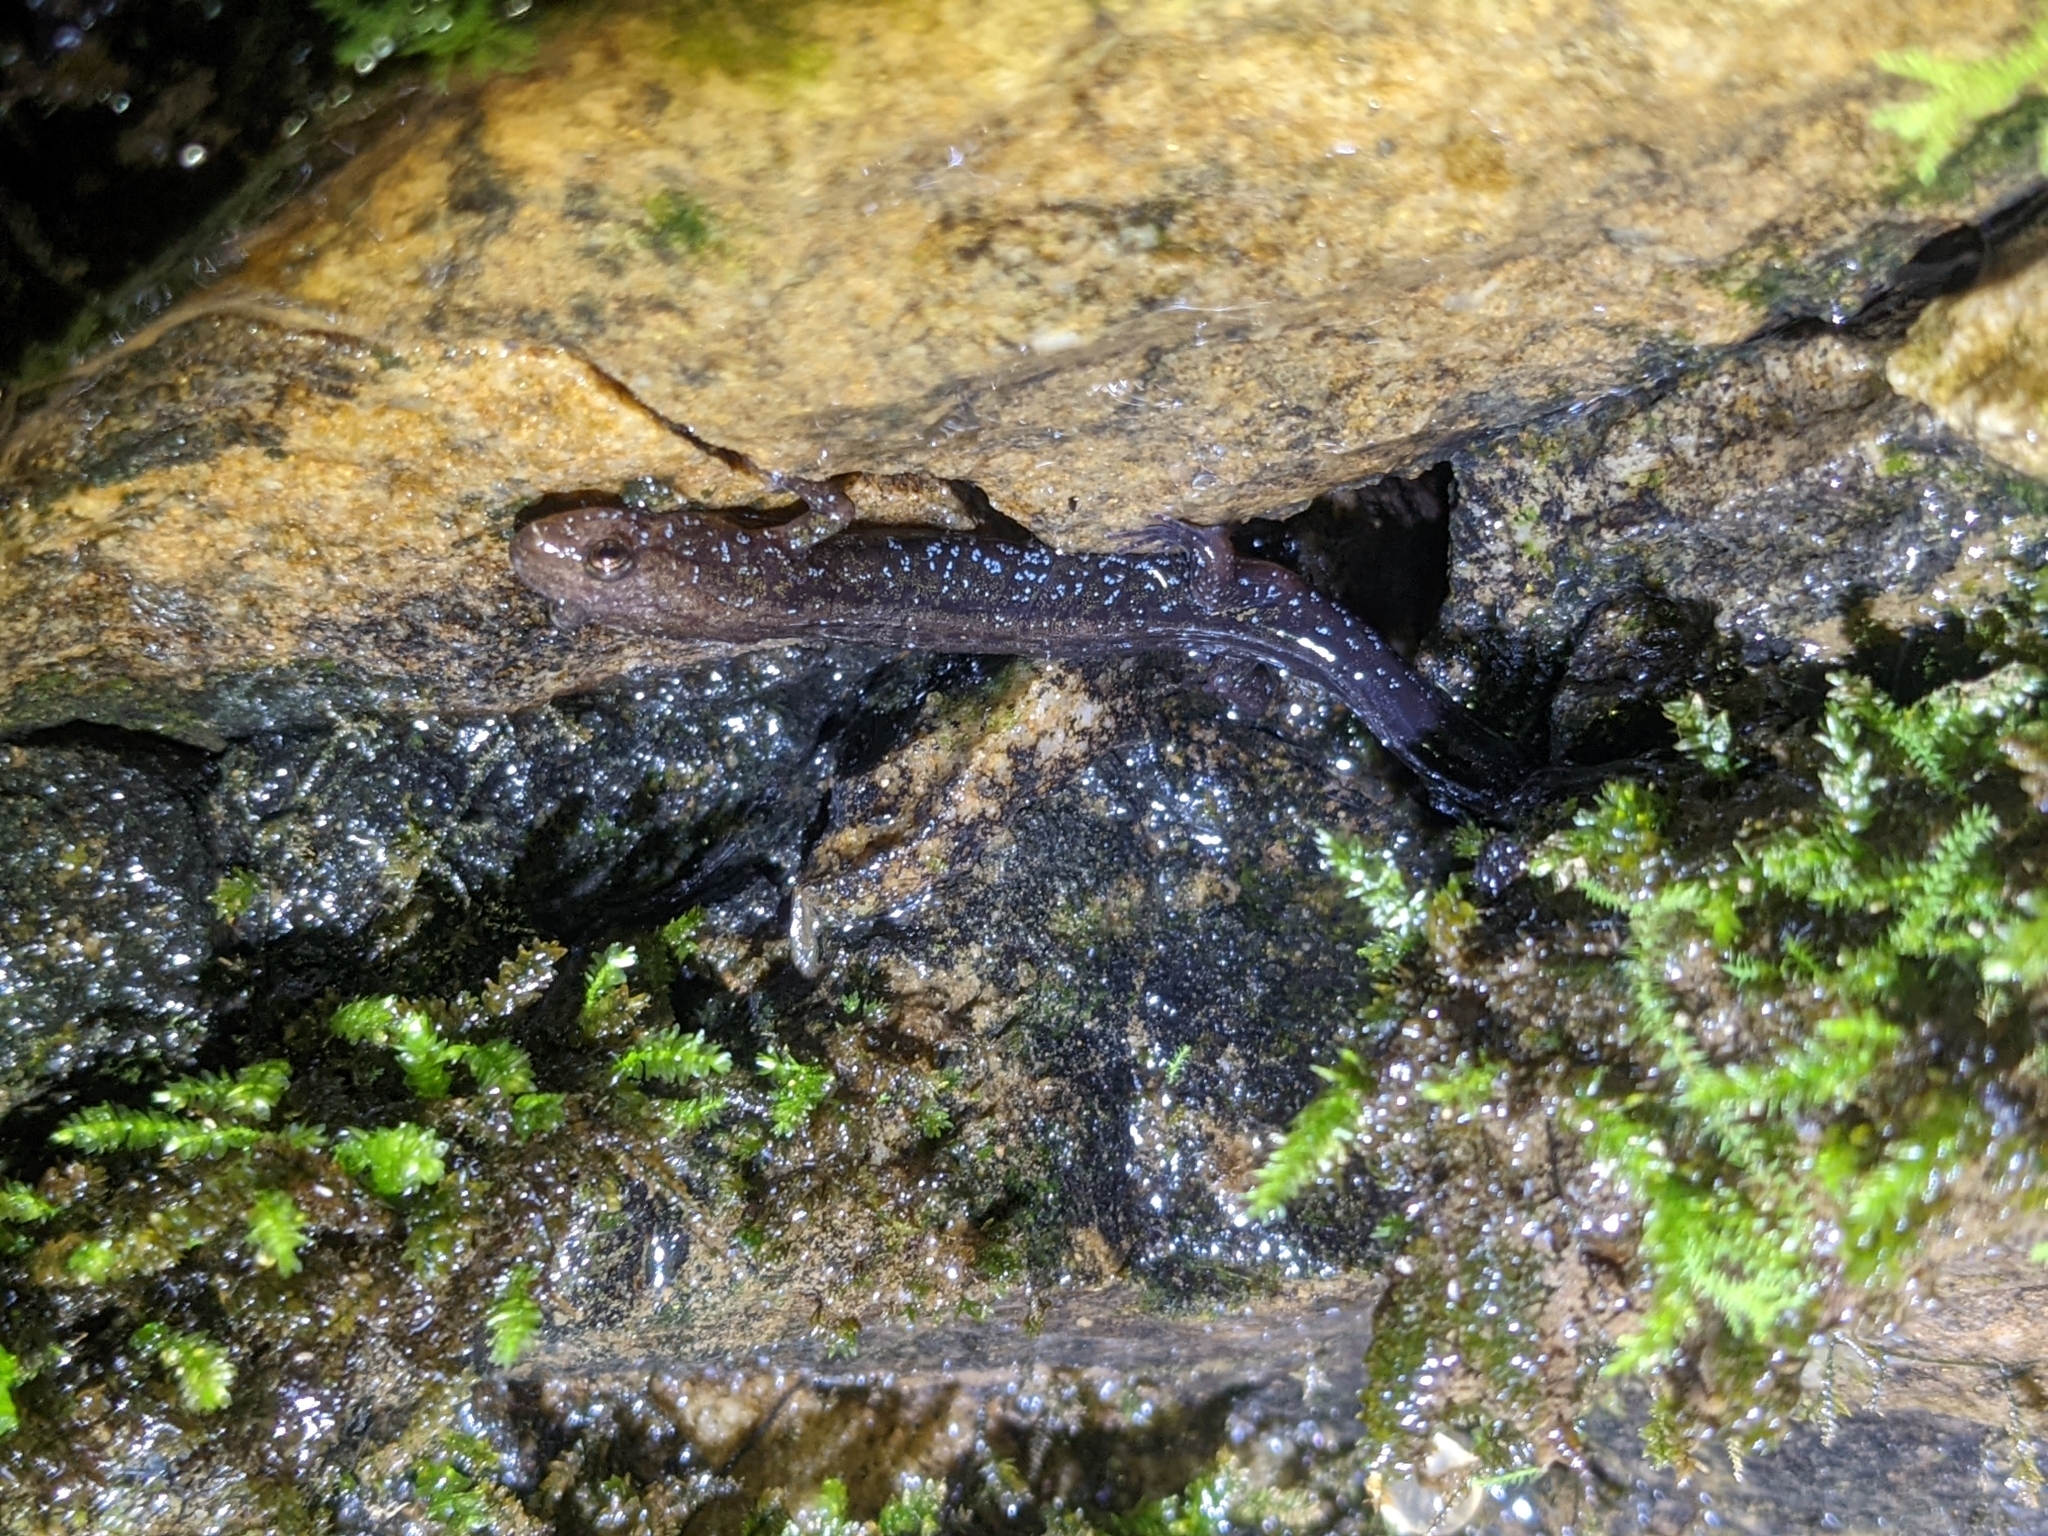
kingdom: Animalia
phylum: Chordata
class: Amphibia
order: Caudata
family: Plethodontidae
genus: Desmognathus
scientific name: Desmognathus ochrophaeus
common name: Allegheny mountain dusky salamander
